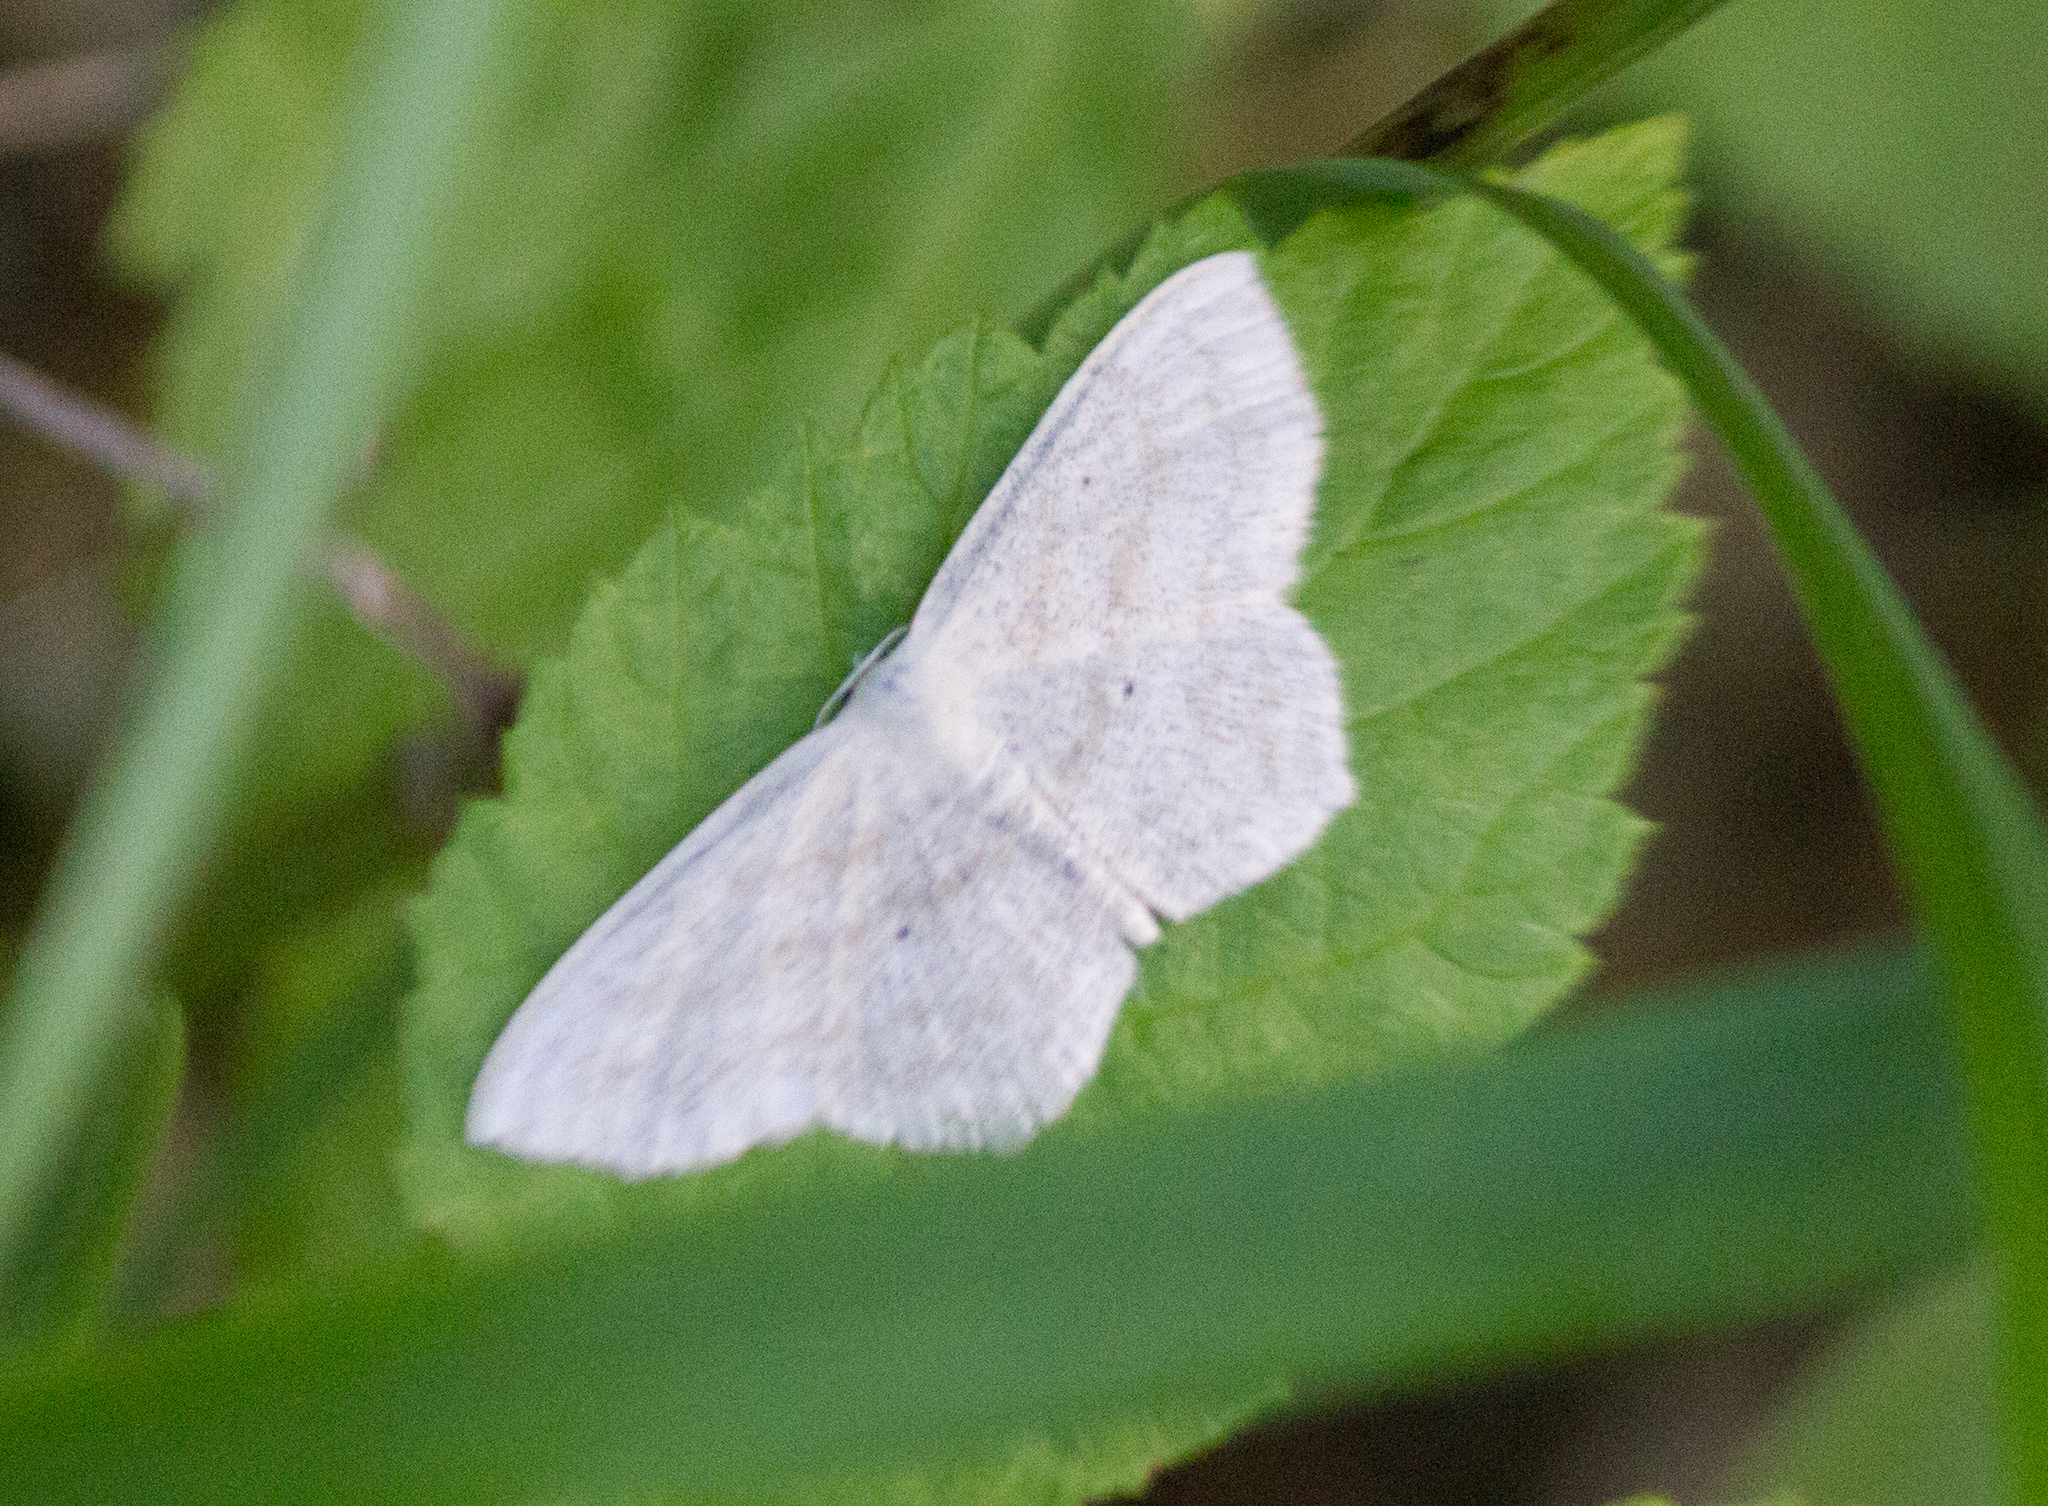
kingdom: Animalia
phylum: Arthropoda
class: Insecta
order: Lepidoptera
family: Geometridae
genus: Scopula
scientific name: Scopula nigropunctata
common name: Sub-angled wave
